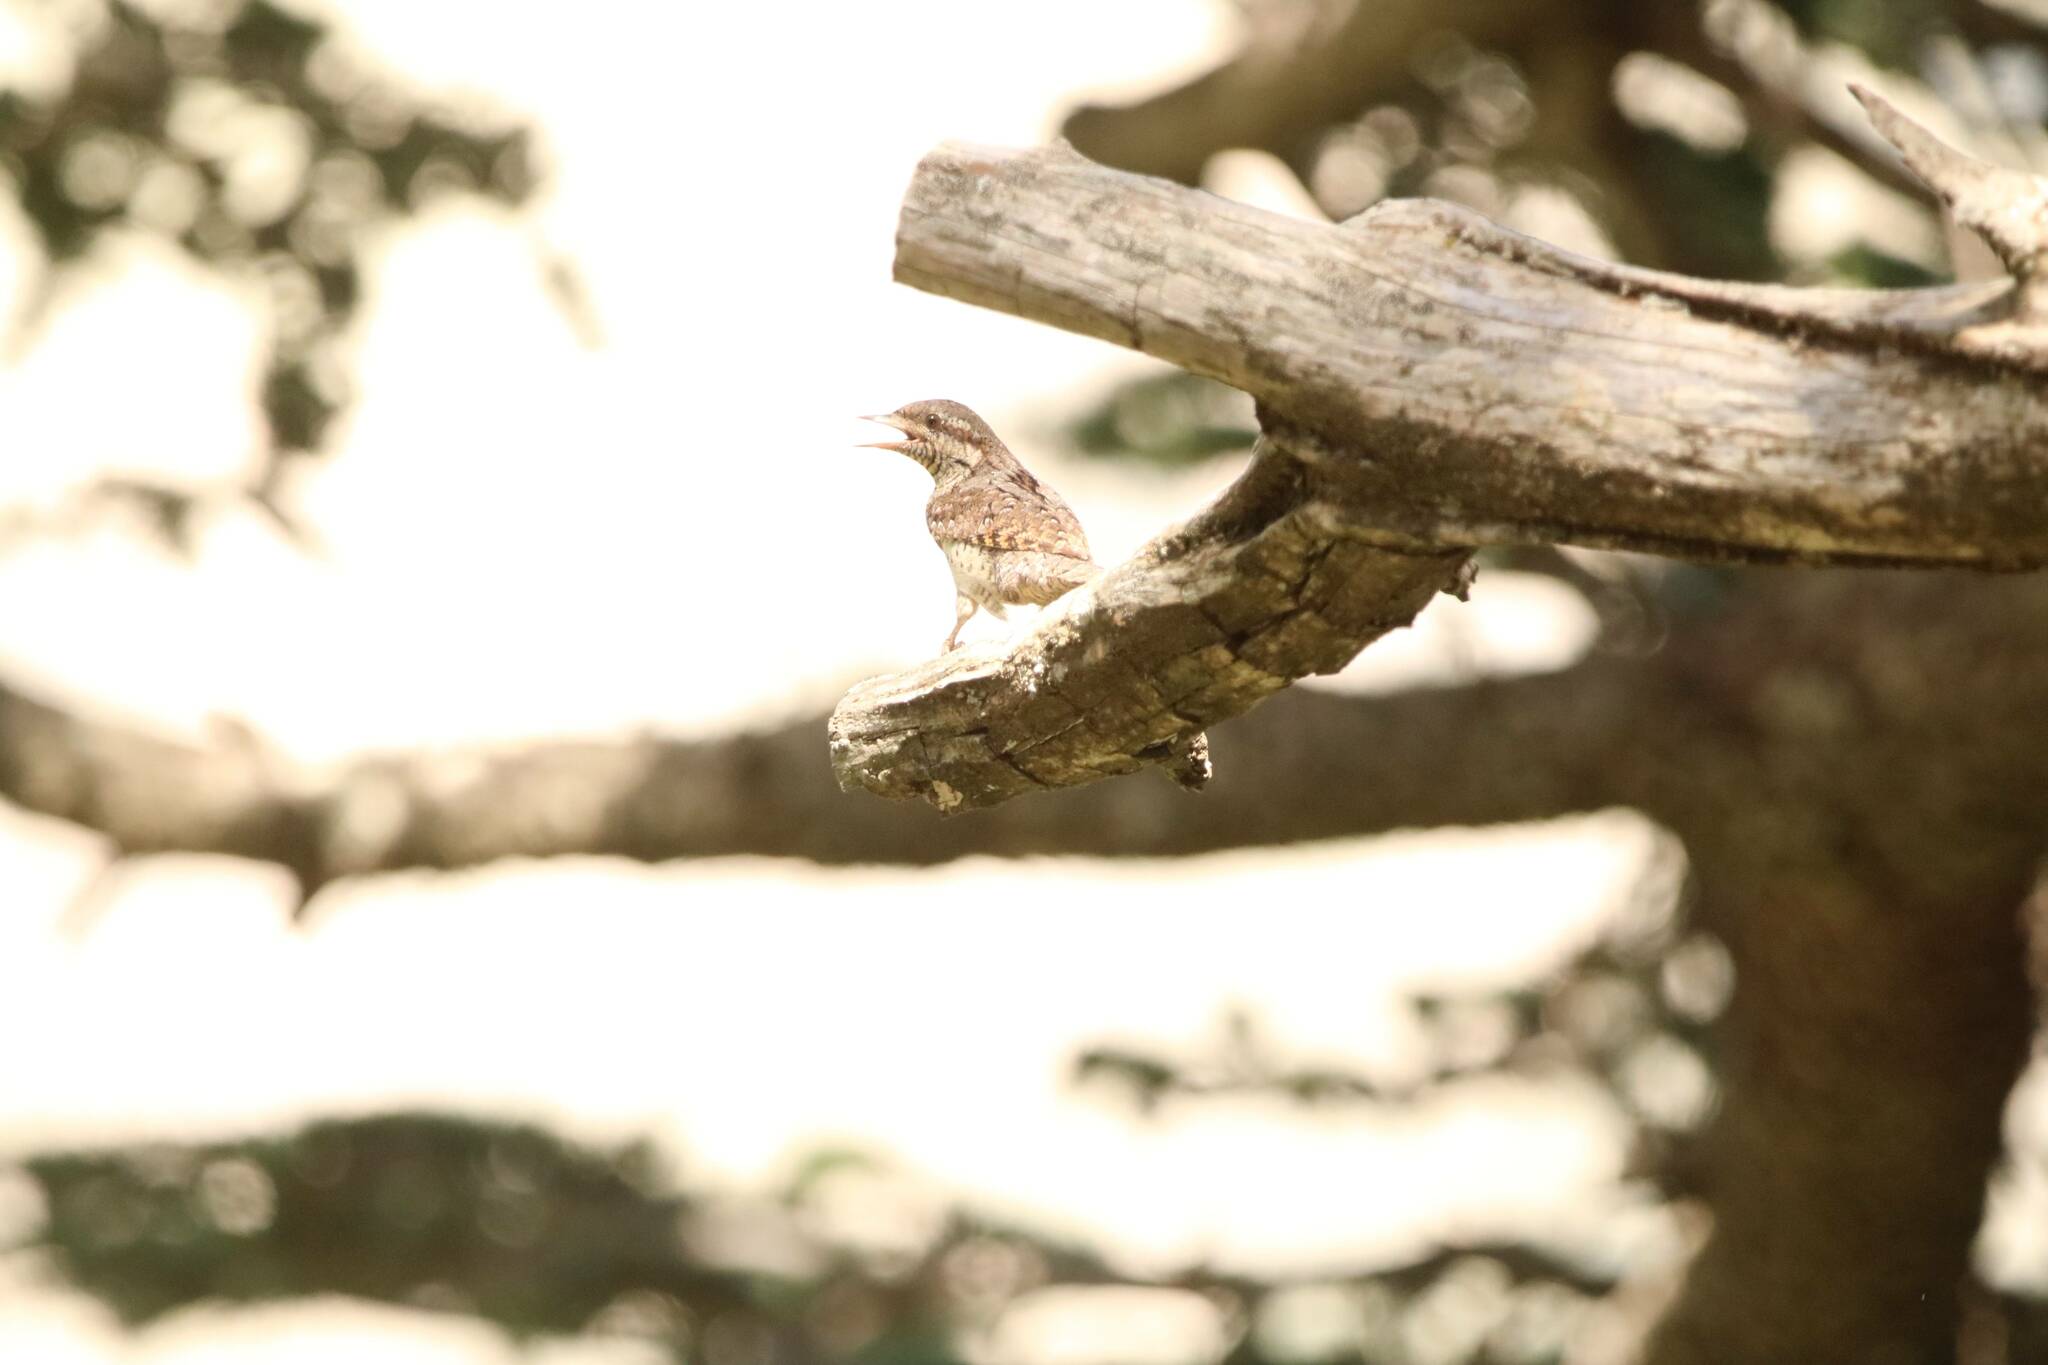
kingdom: Animalia
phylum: Chordata
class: Aves
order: Piciformes
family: Picidae
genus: Jynx
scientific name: Jynx torquilla
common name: Eurasian wryneck
